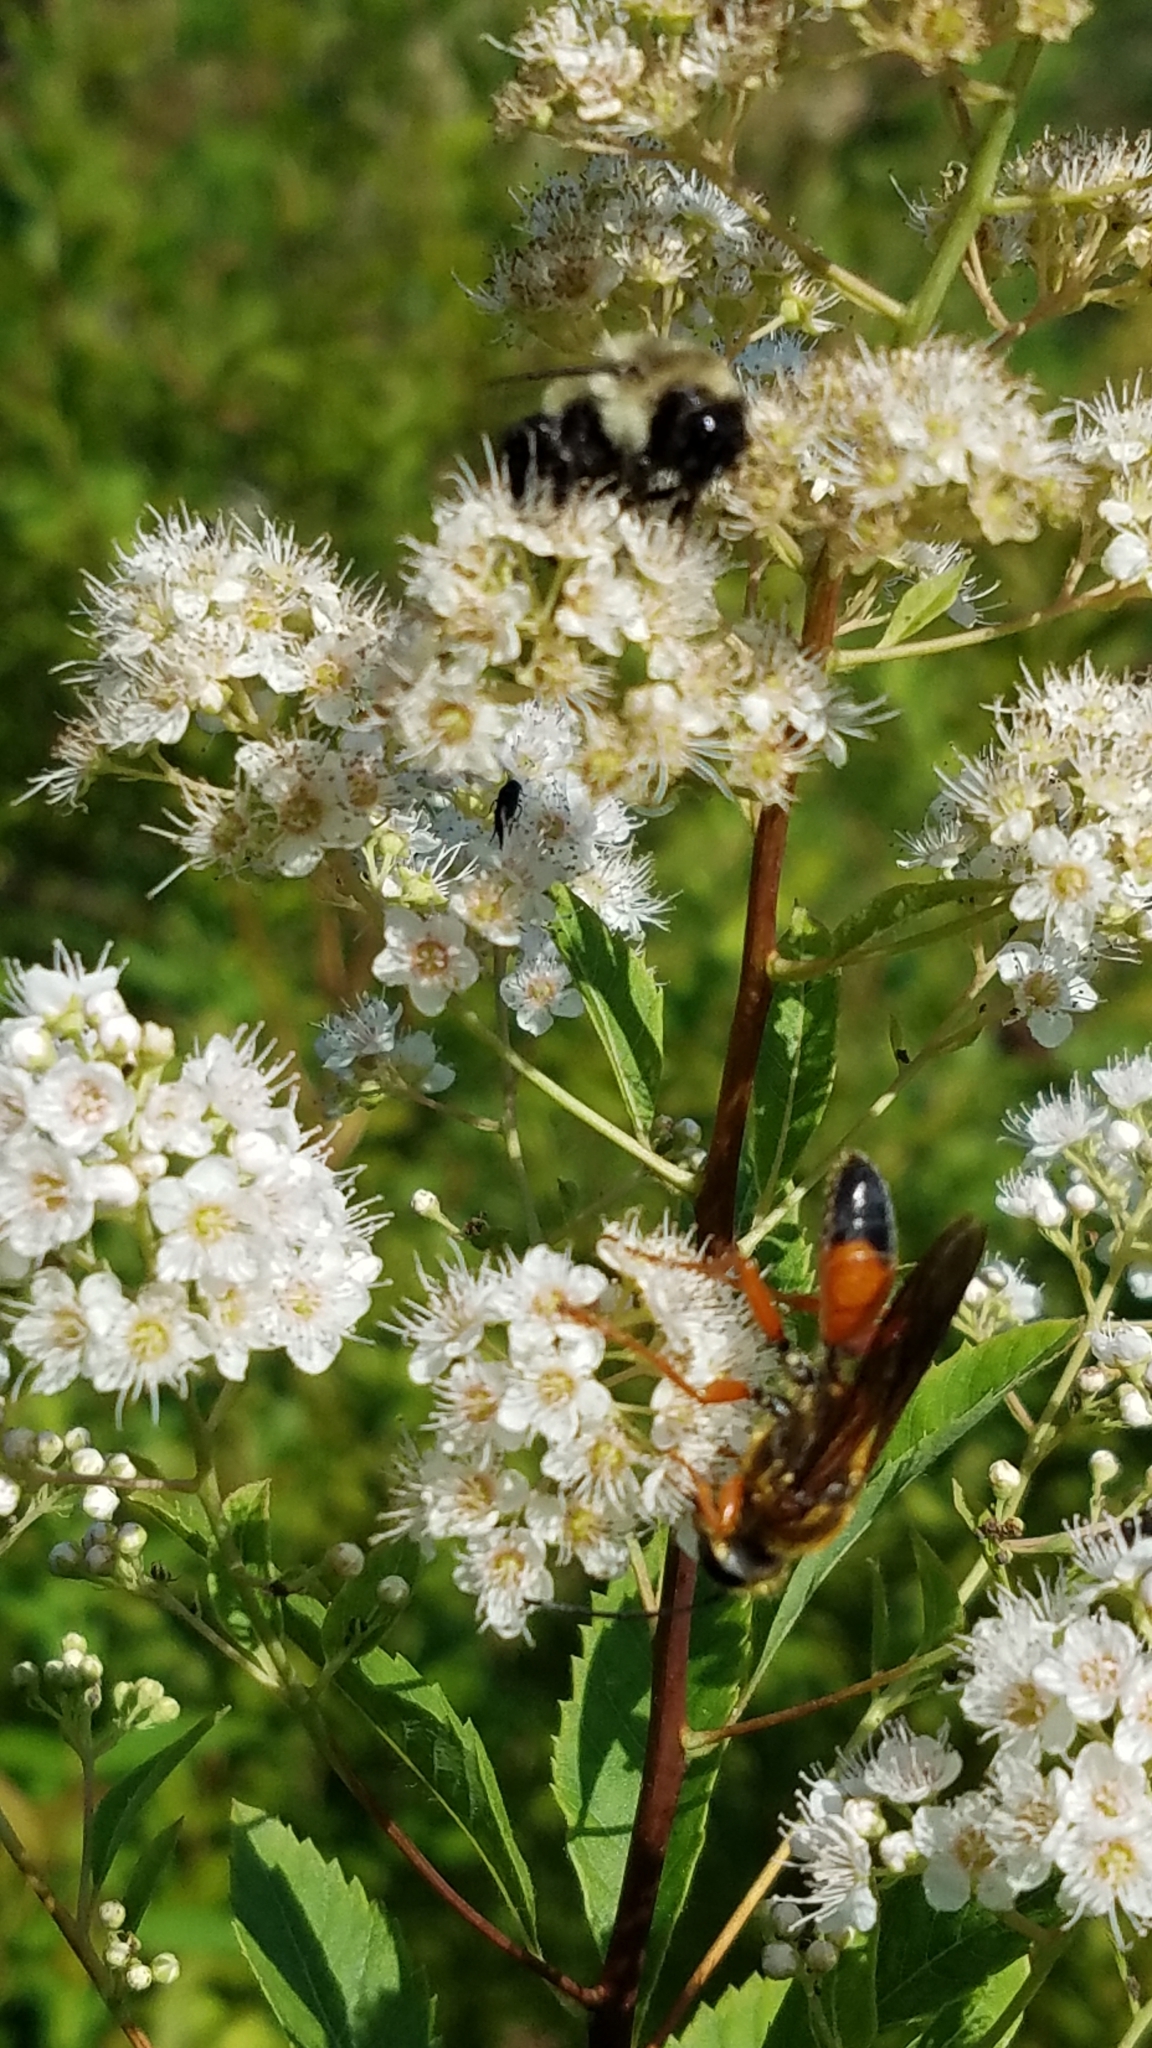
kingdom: Animalia
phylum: Arthropoda
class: Insecta
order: Hymenoptera
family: Sphecidae
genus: Sphex
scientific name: Sphex ichneumoneus
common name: Great golden digger wasp
